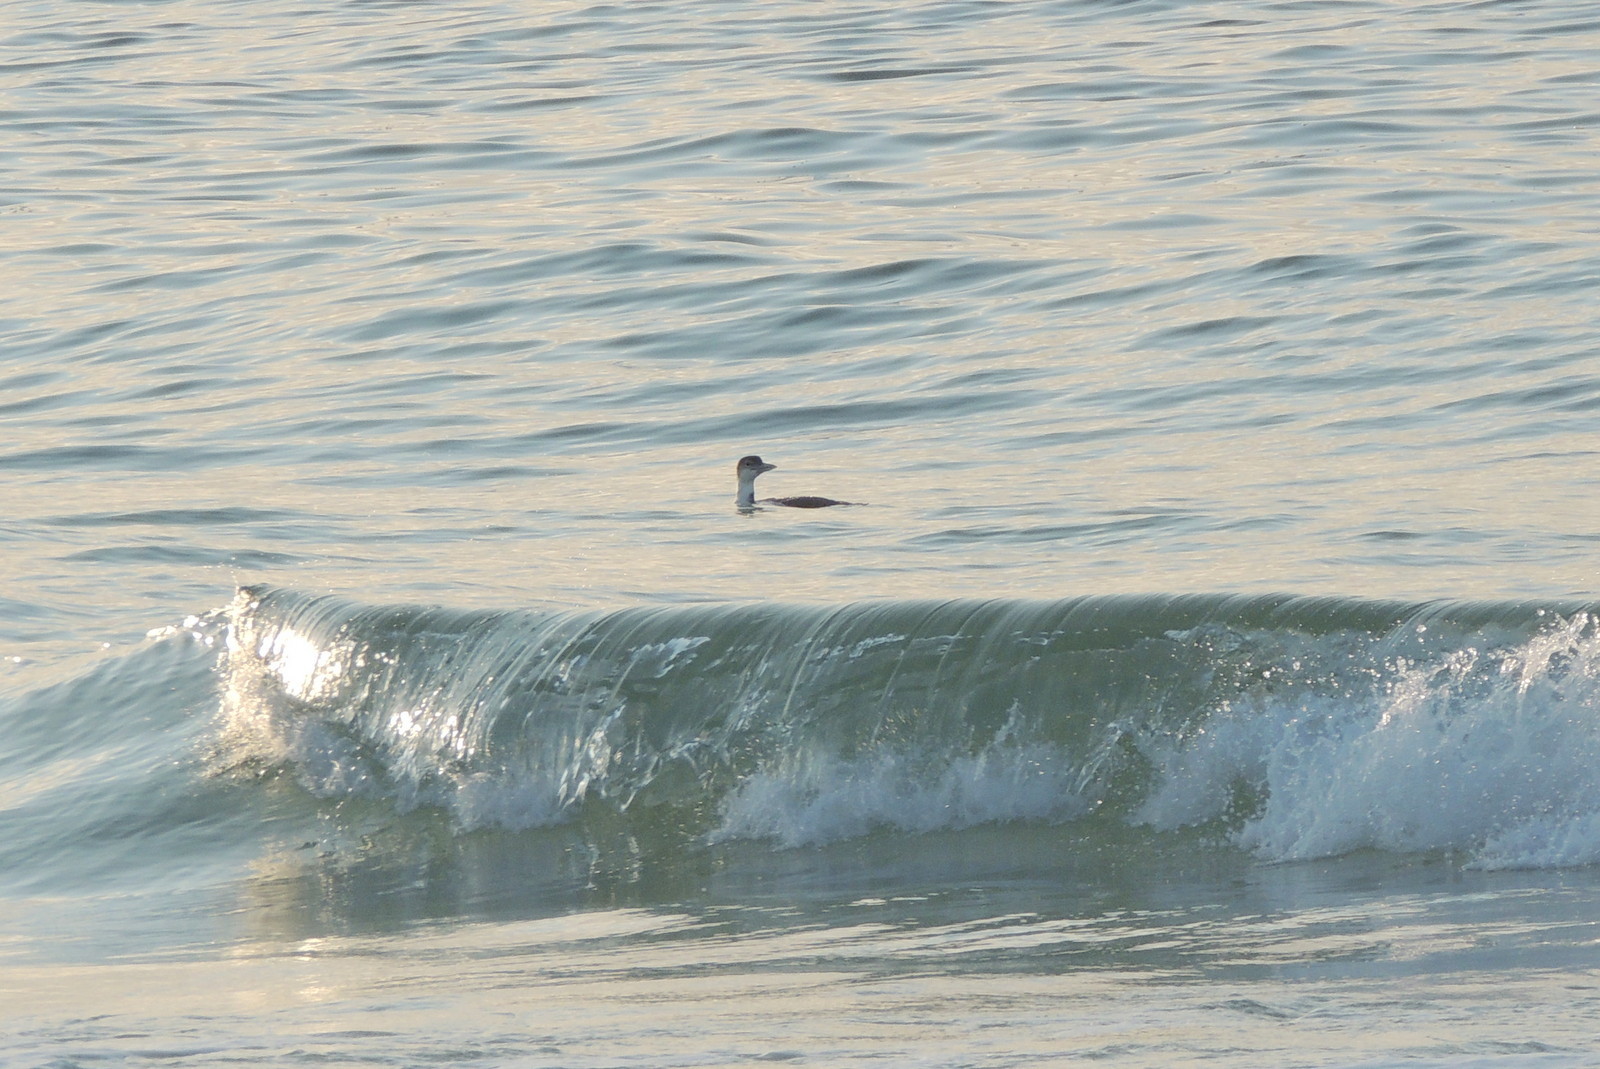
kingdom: Animalia
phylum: Chordata
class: Aves
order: Gaviiformes
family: Gaviidae
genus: Gavia
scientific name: Gavia immer
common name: Common loon
